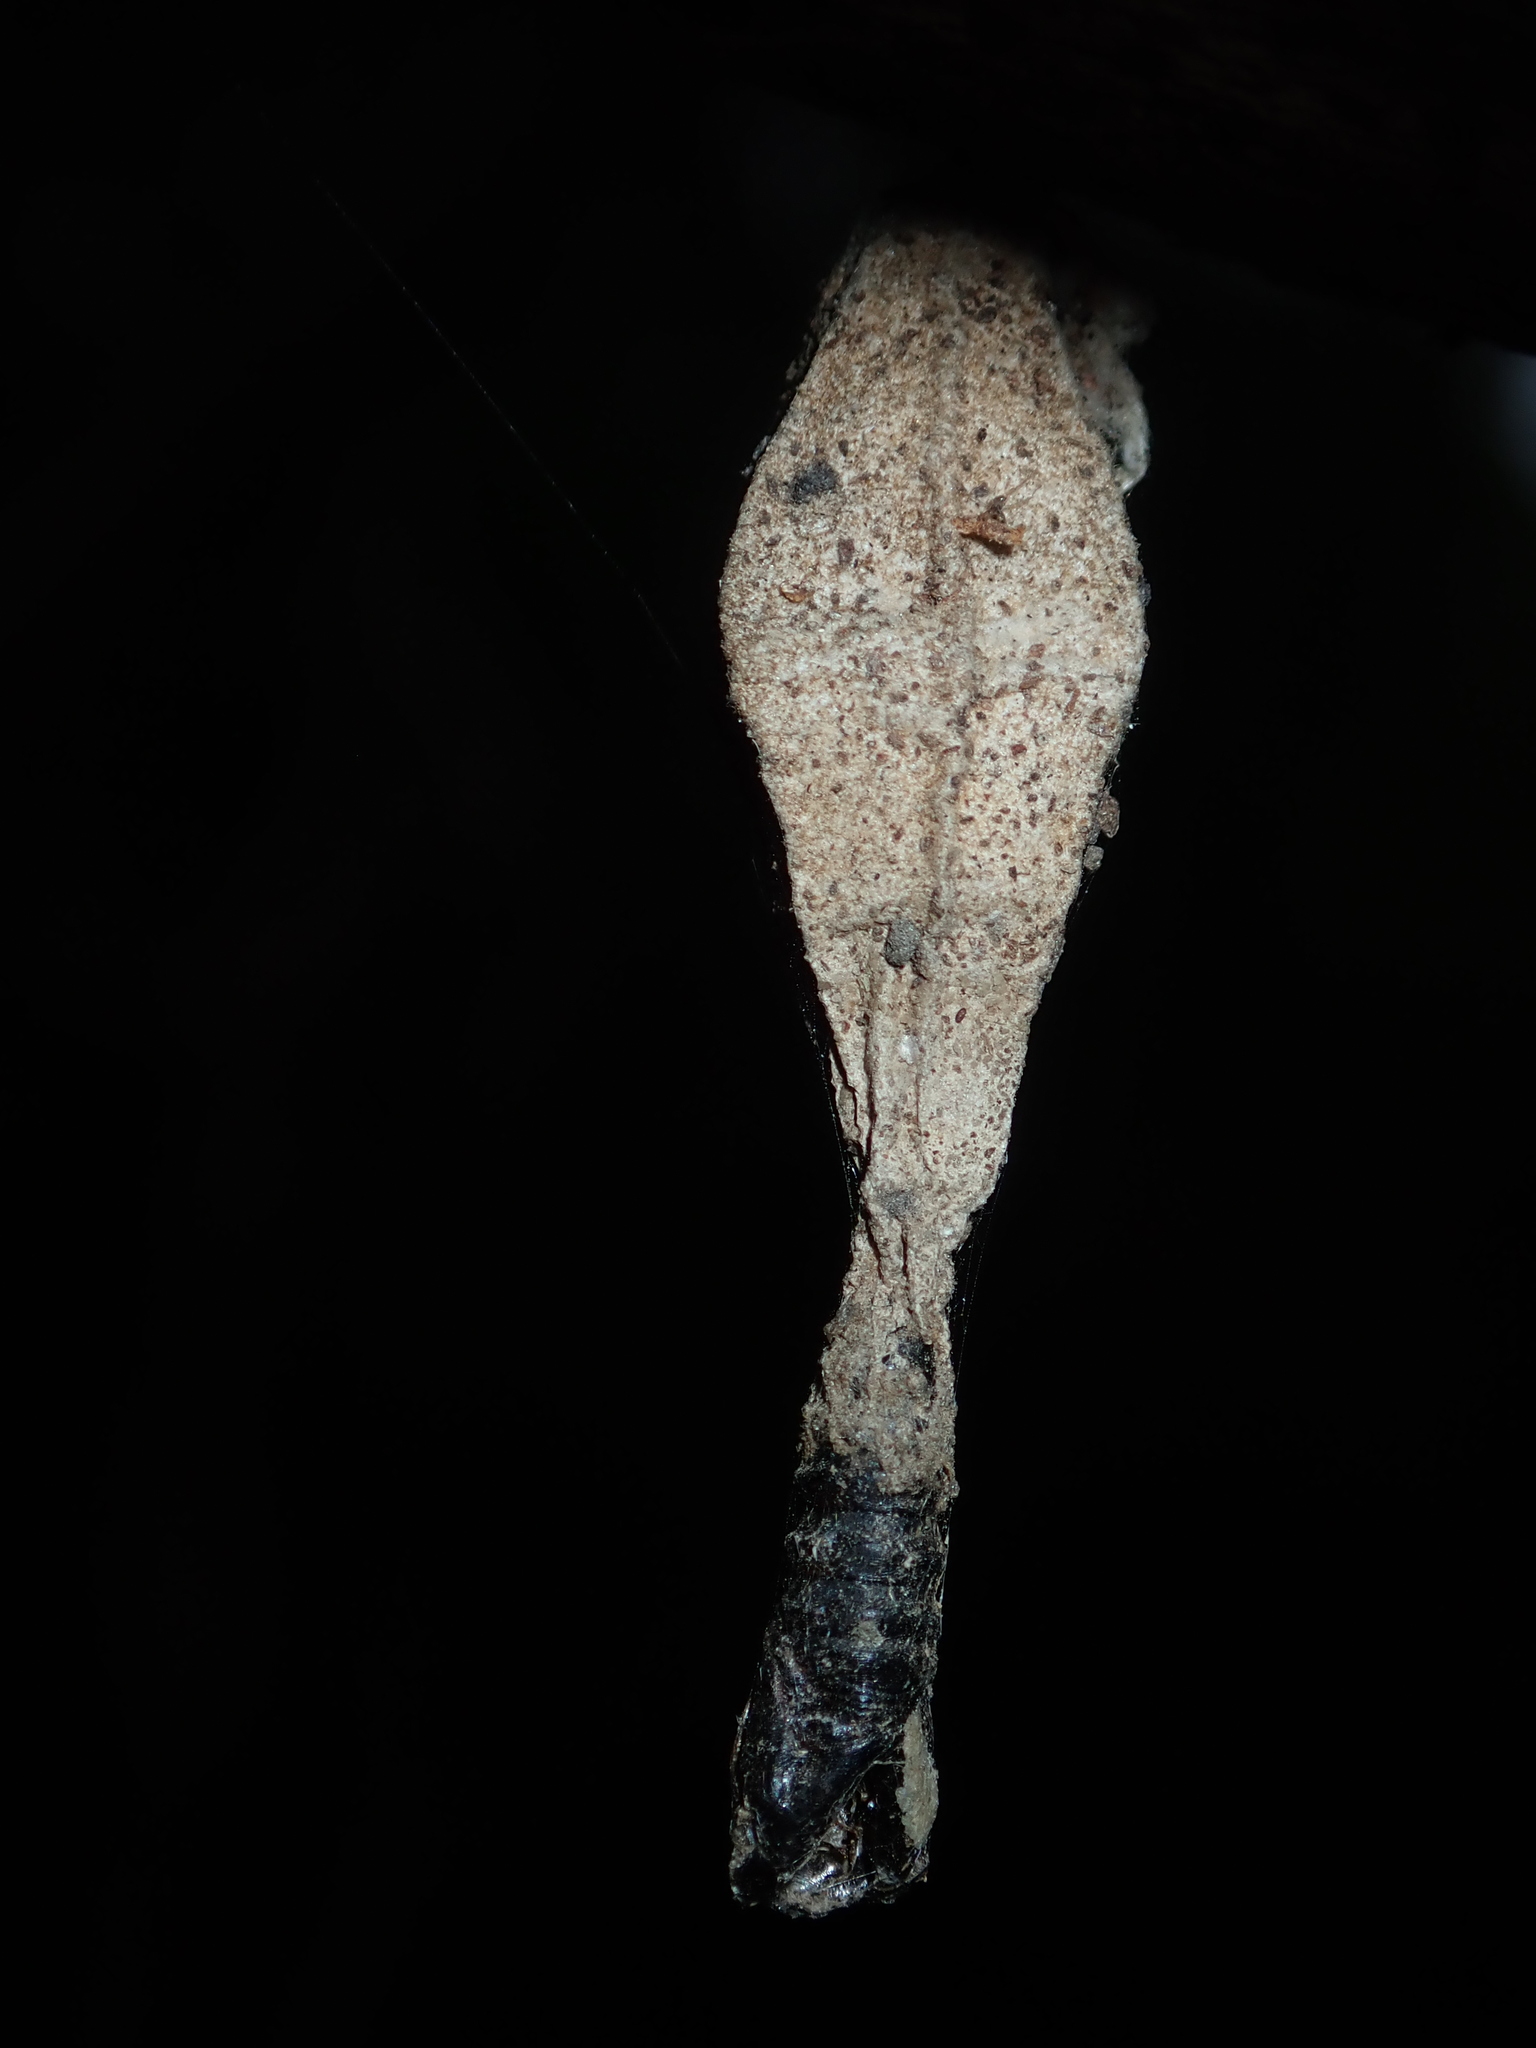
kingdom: Animalia
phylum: Arthropoda
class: Insecta
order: Lepidoptera
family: Psychidae
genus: Hyalarcta
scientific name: Hyalarcta nigrescens
